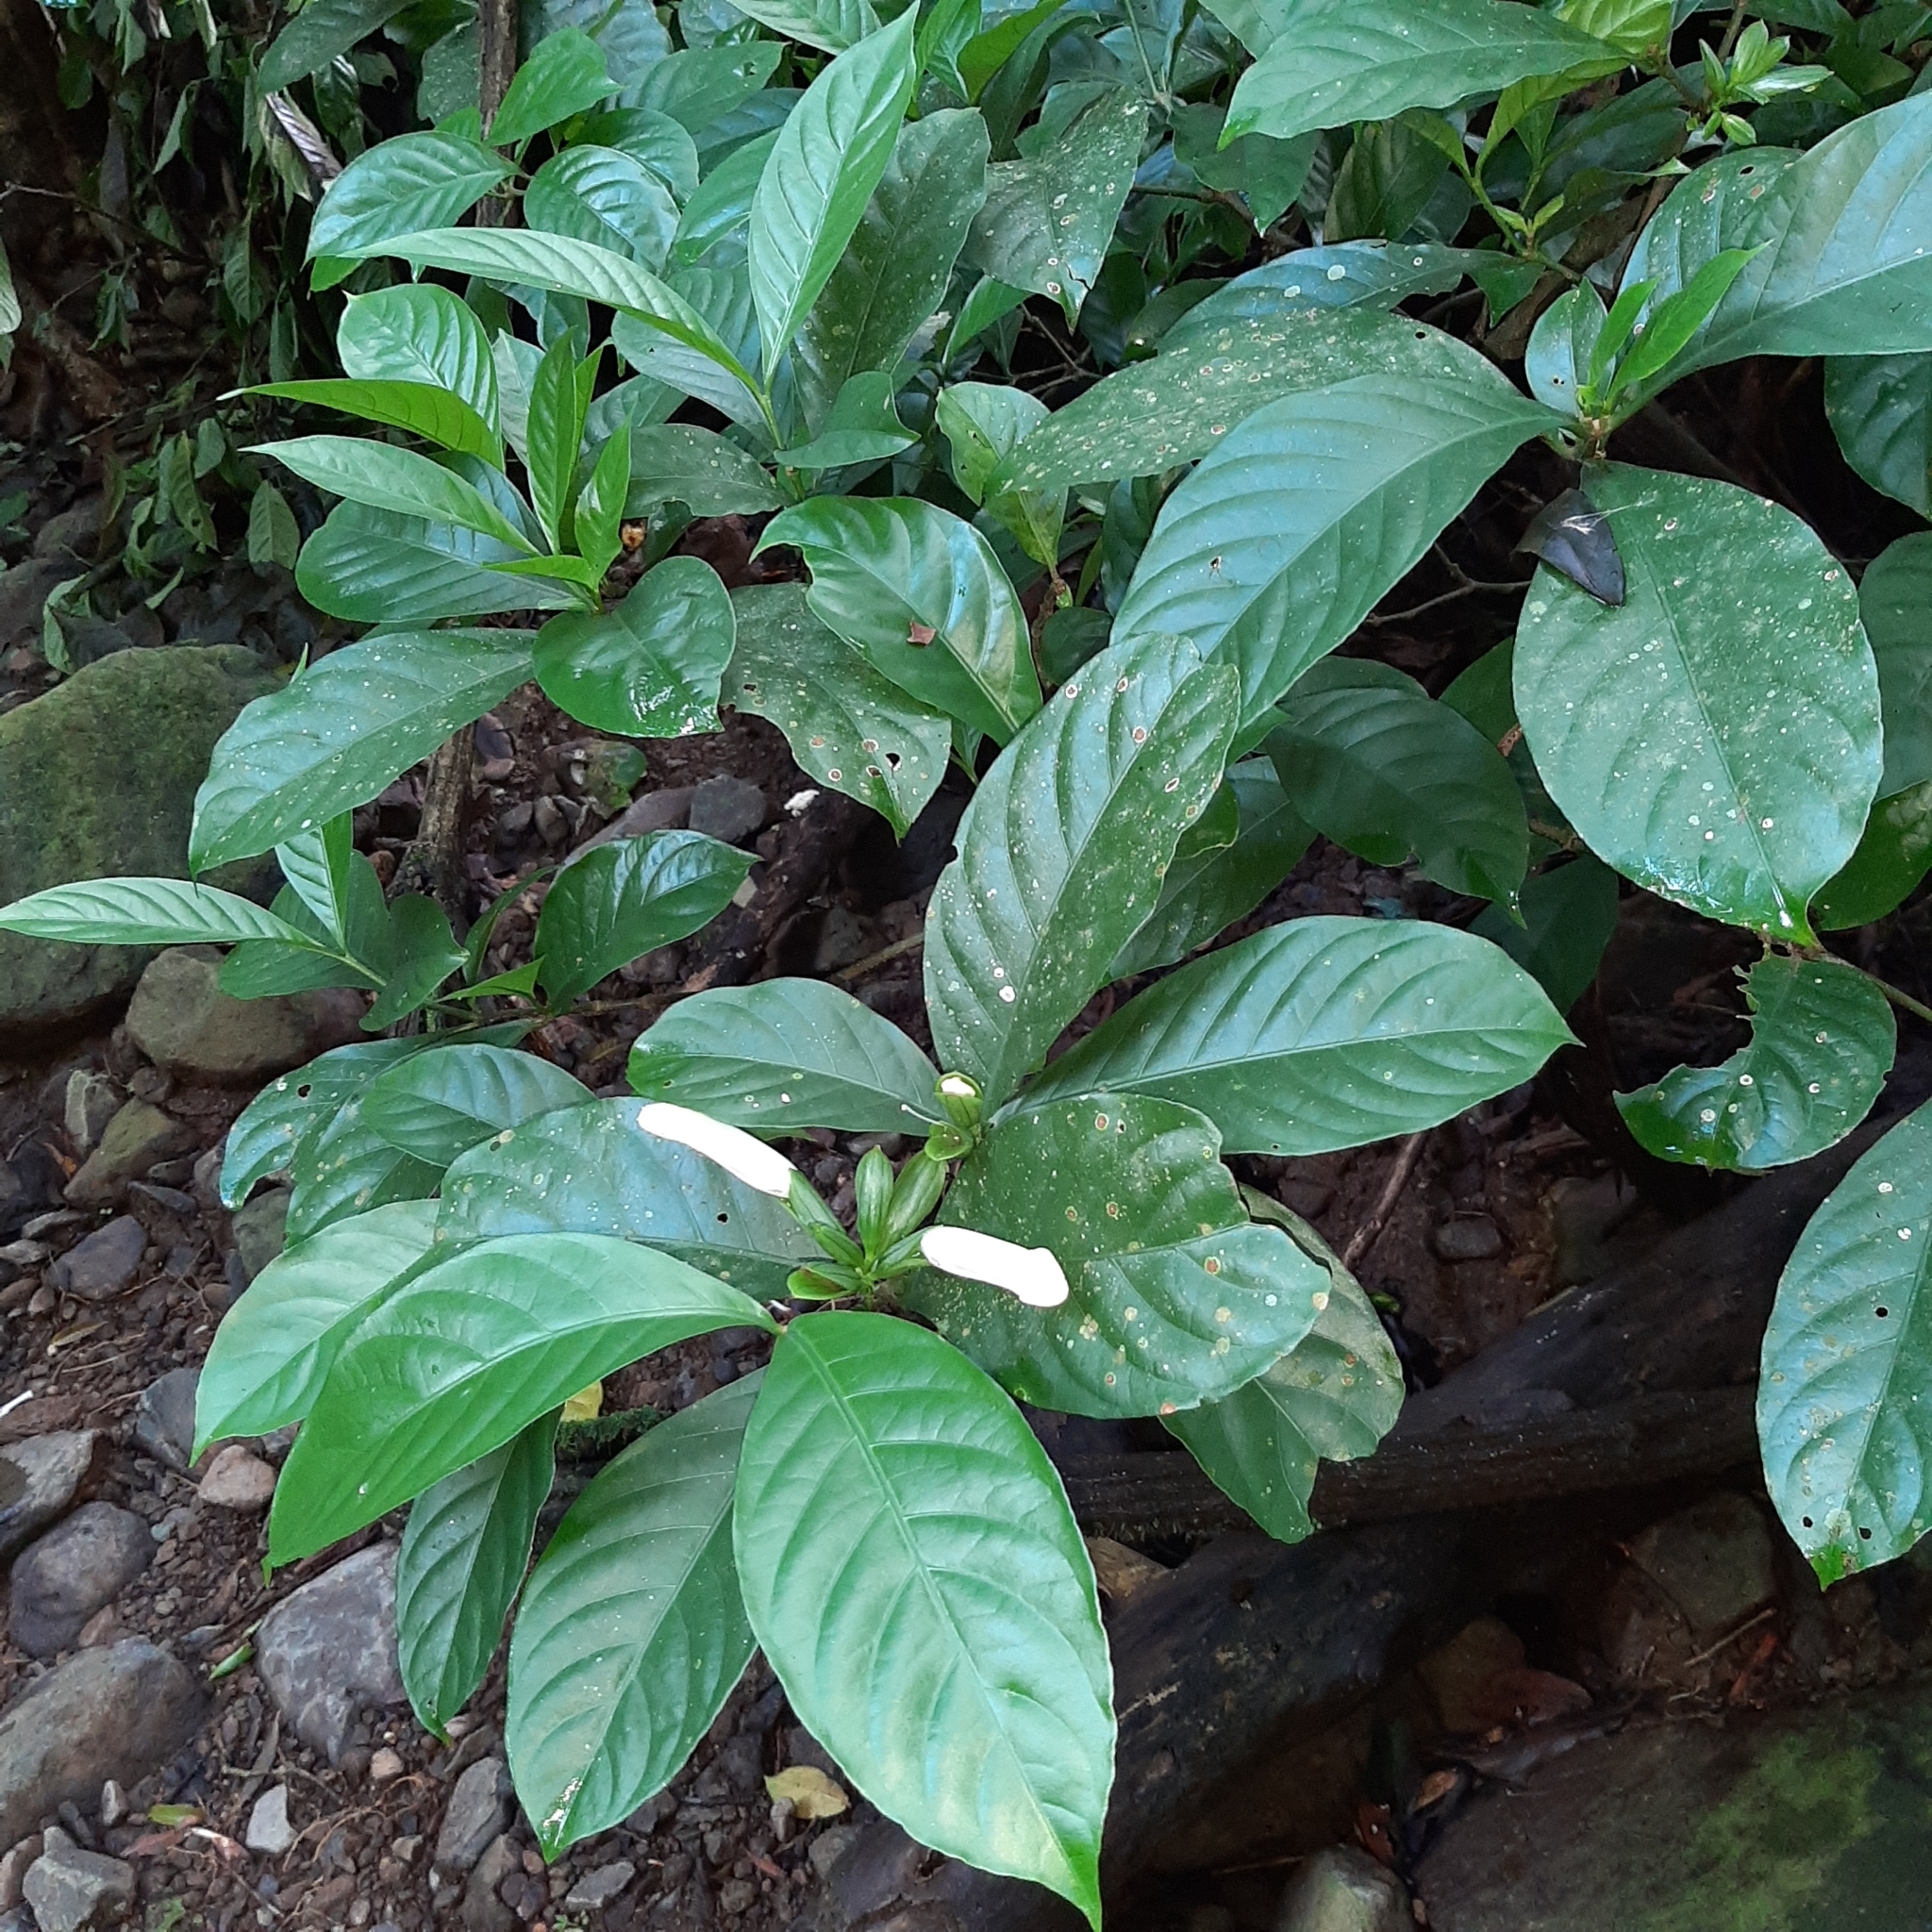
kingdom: Plantae
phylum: Tracheophyta
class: Magnoliopsida
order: Lamiales
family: Acanthaceae
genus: Spathacanthus
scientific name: Spathacanthus hoffmannii
